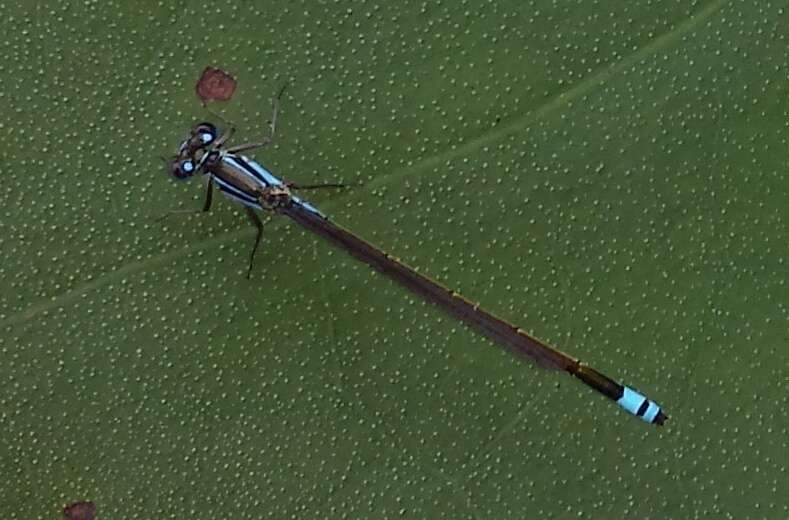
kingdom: Animalia
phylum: Arthropoda
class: Insecta
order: Odonata
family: Coenagrionidae
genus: Ischnura
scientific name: Ischnura heterosticta
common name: Common bluetail
